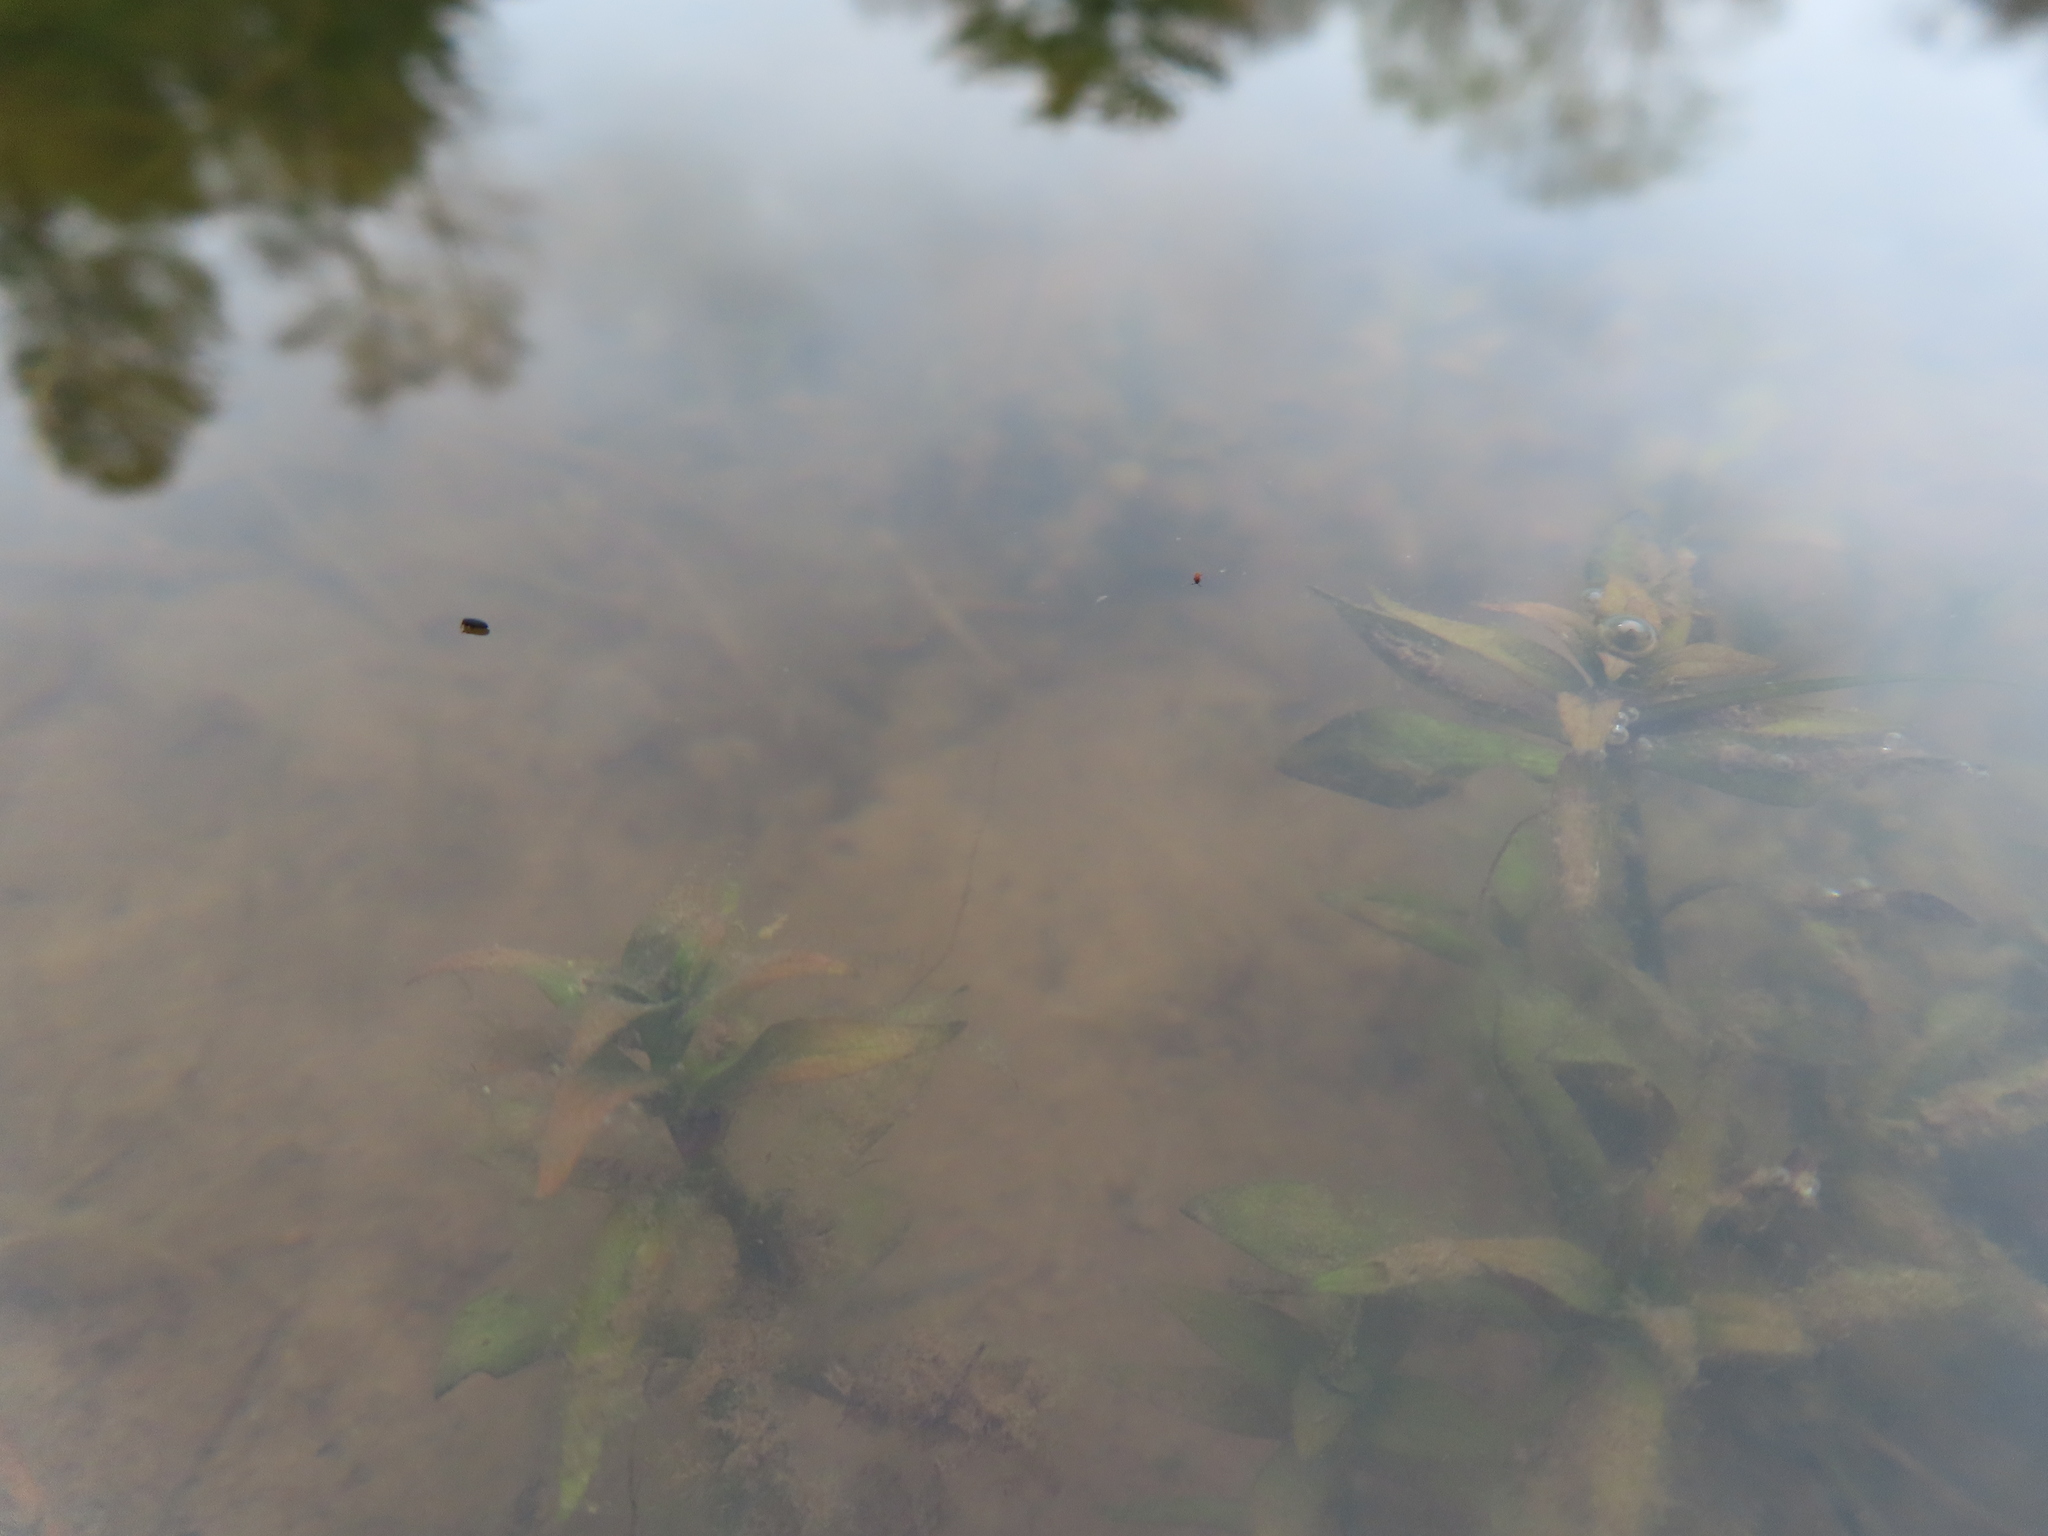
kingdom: Animalia
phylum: Arthropoda
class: Collembola
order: Poduromorpha
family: Poduridae
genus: Podura
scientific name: Podura aquatica
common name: Water springtail
